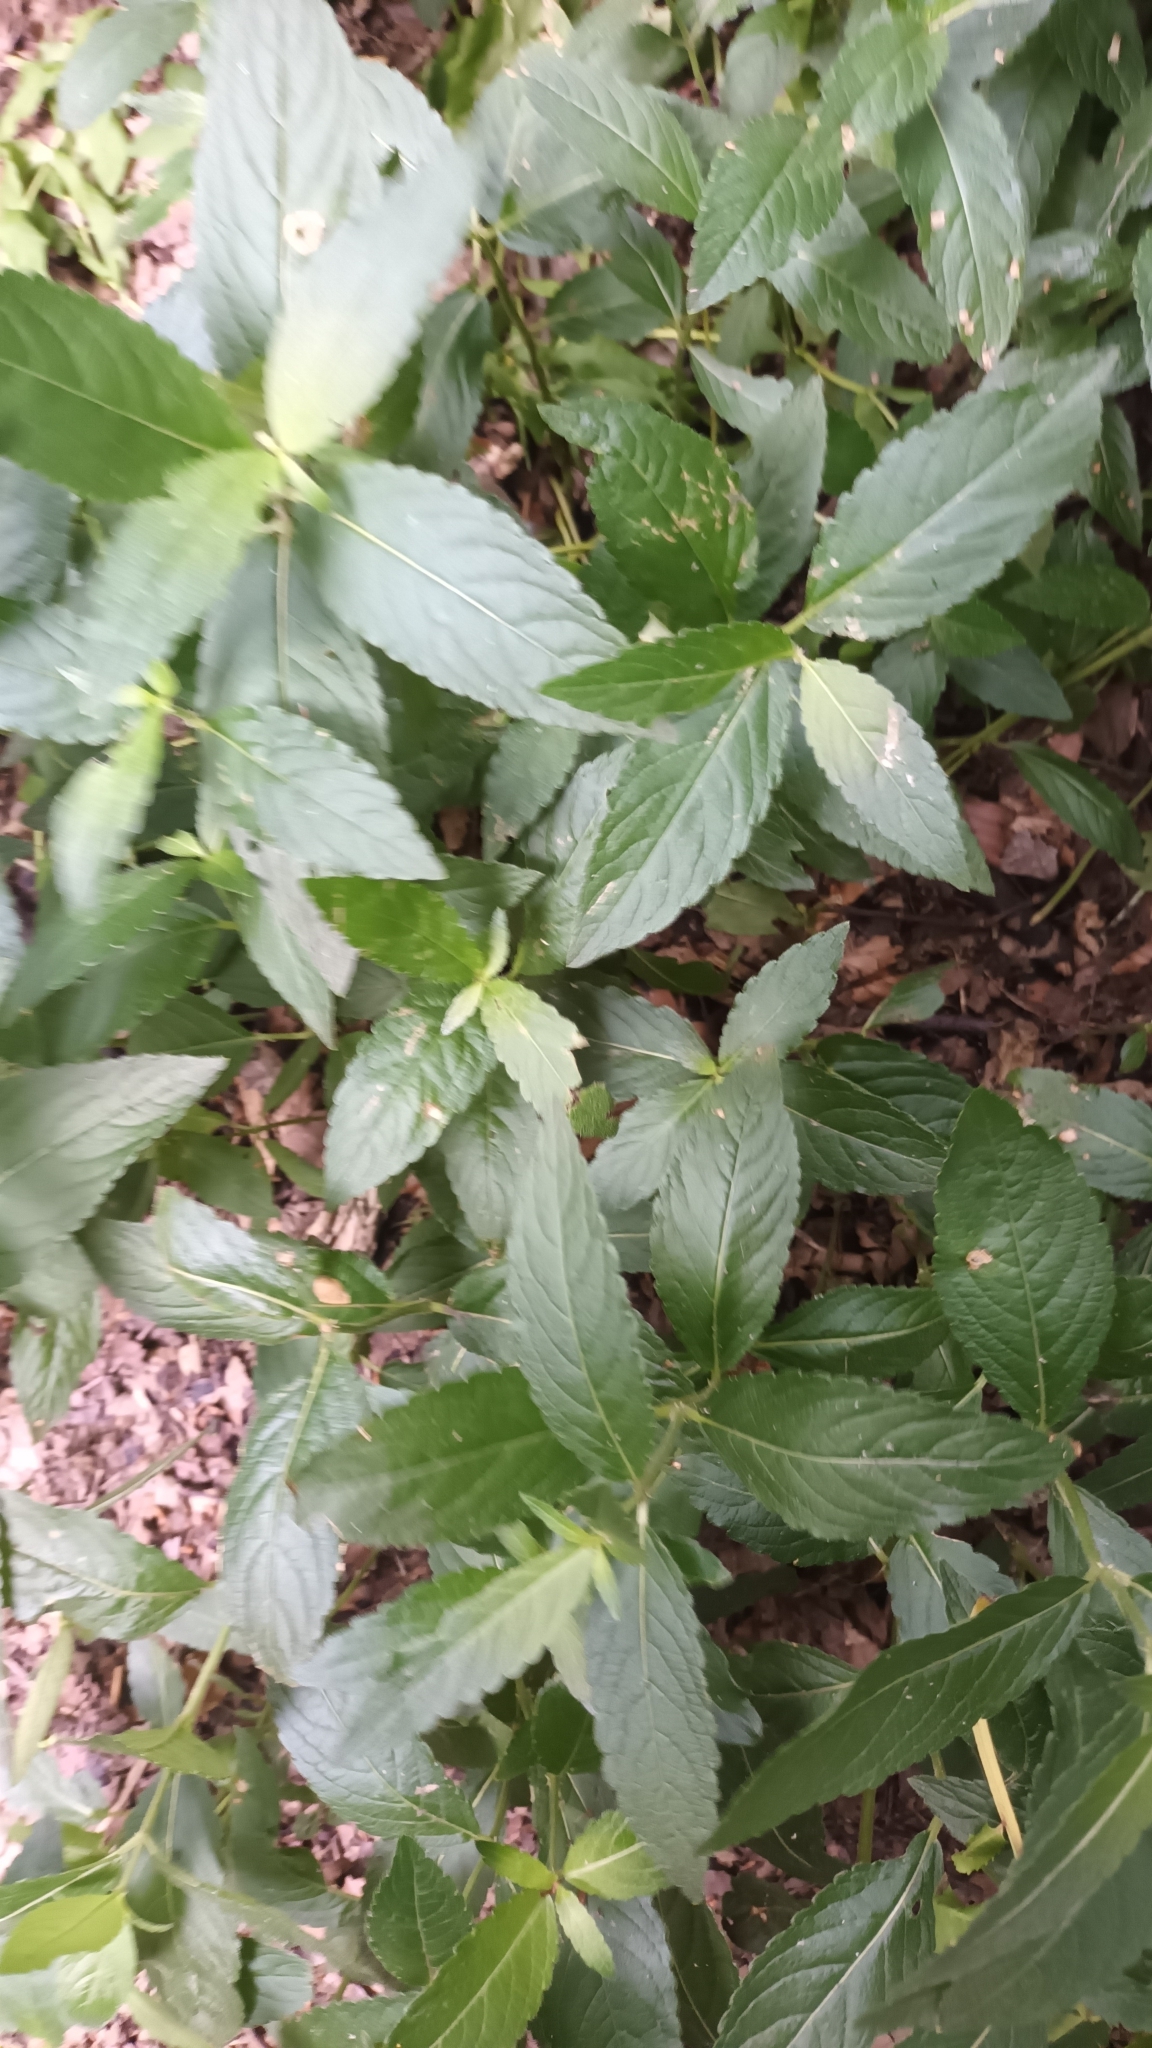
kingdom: Plantae
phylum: Tracheophyta
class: Magnoliopsida
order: Malpighiales
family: Euphorbiaceae
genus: Mercurialis
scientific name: Mercurialis perennis
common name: Dog mercury
